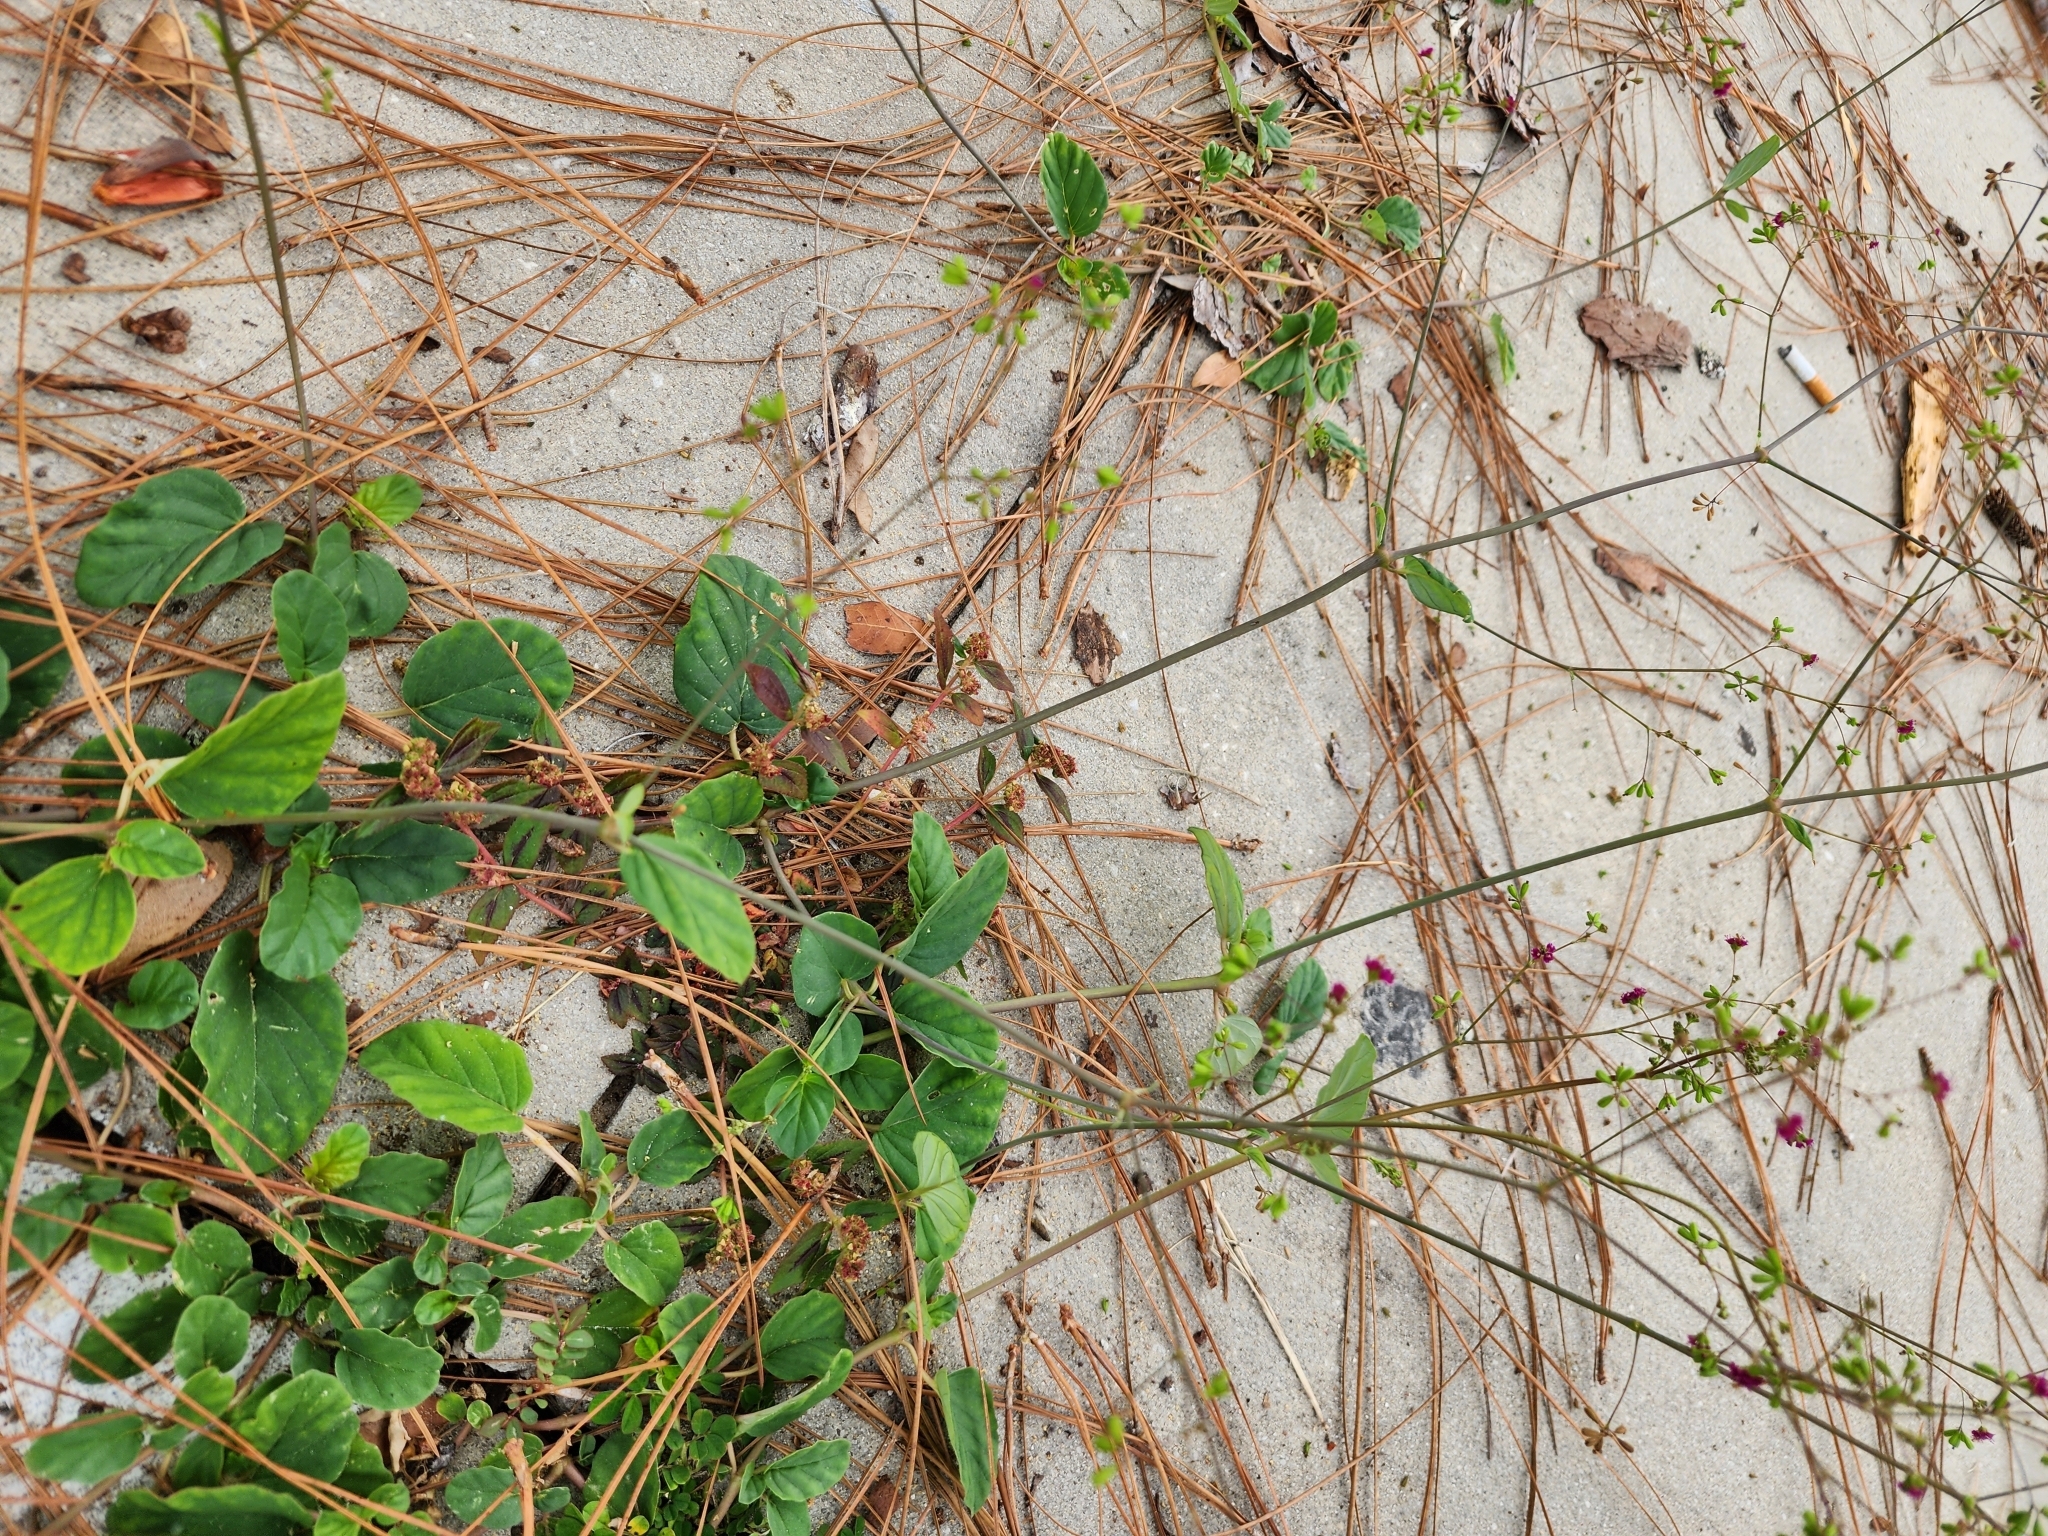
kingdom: Plantae
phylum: Tracheophyta
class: Magnoliopsida
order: Caryophyllales
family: Nyctaginaceae
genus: Boerhavia
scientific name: Boerhavia diffusa
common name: Red spiderling
